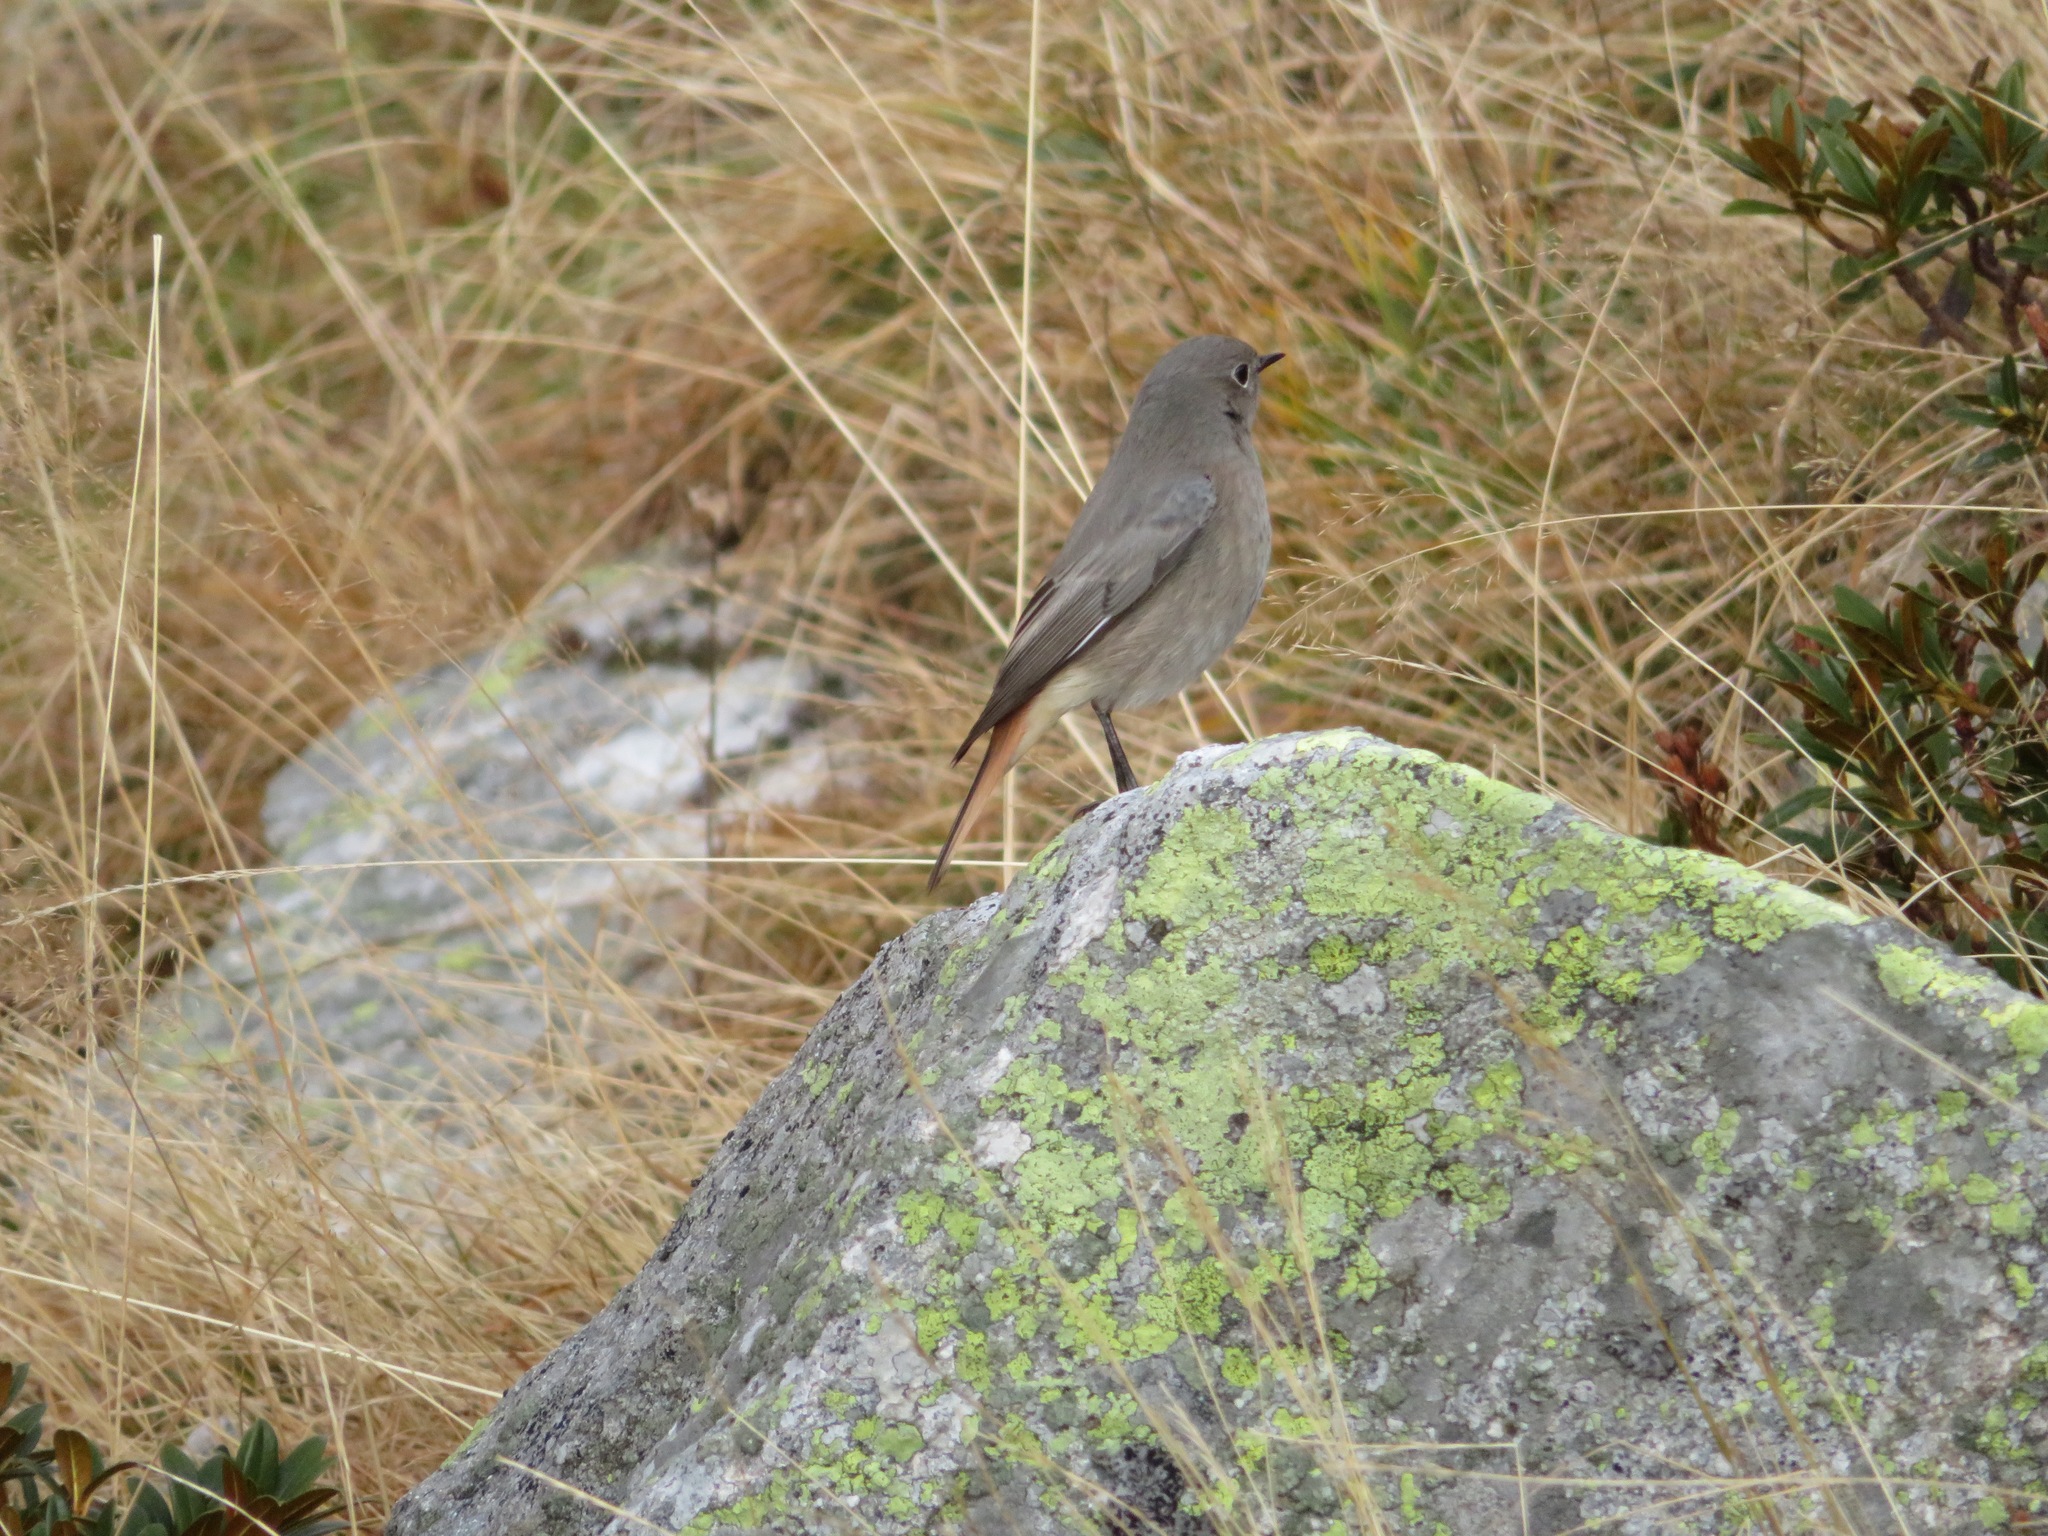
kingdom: Animalia
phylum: Chordata
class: Aves
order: Passeriformes
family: Muscicapidae
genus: Phoenicurus
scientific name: Phoenicurus ochruros
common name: Black redstart
